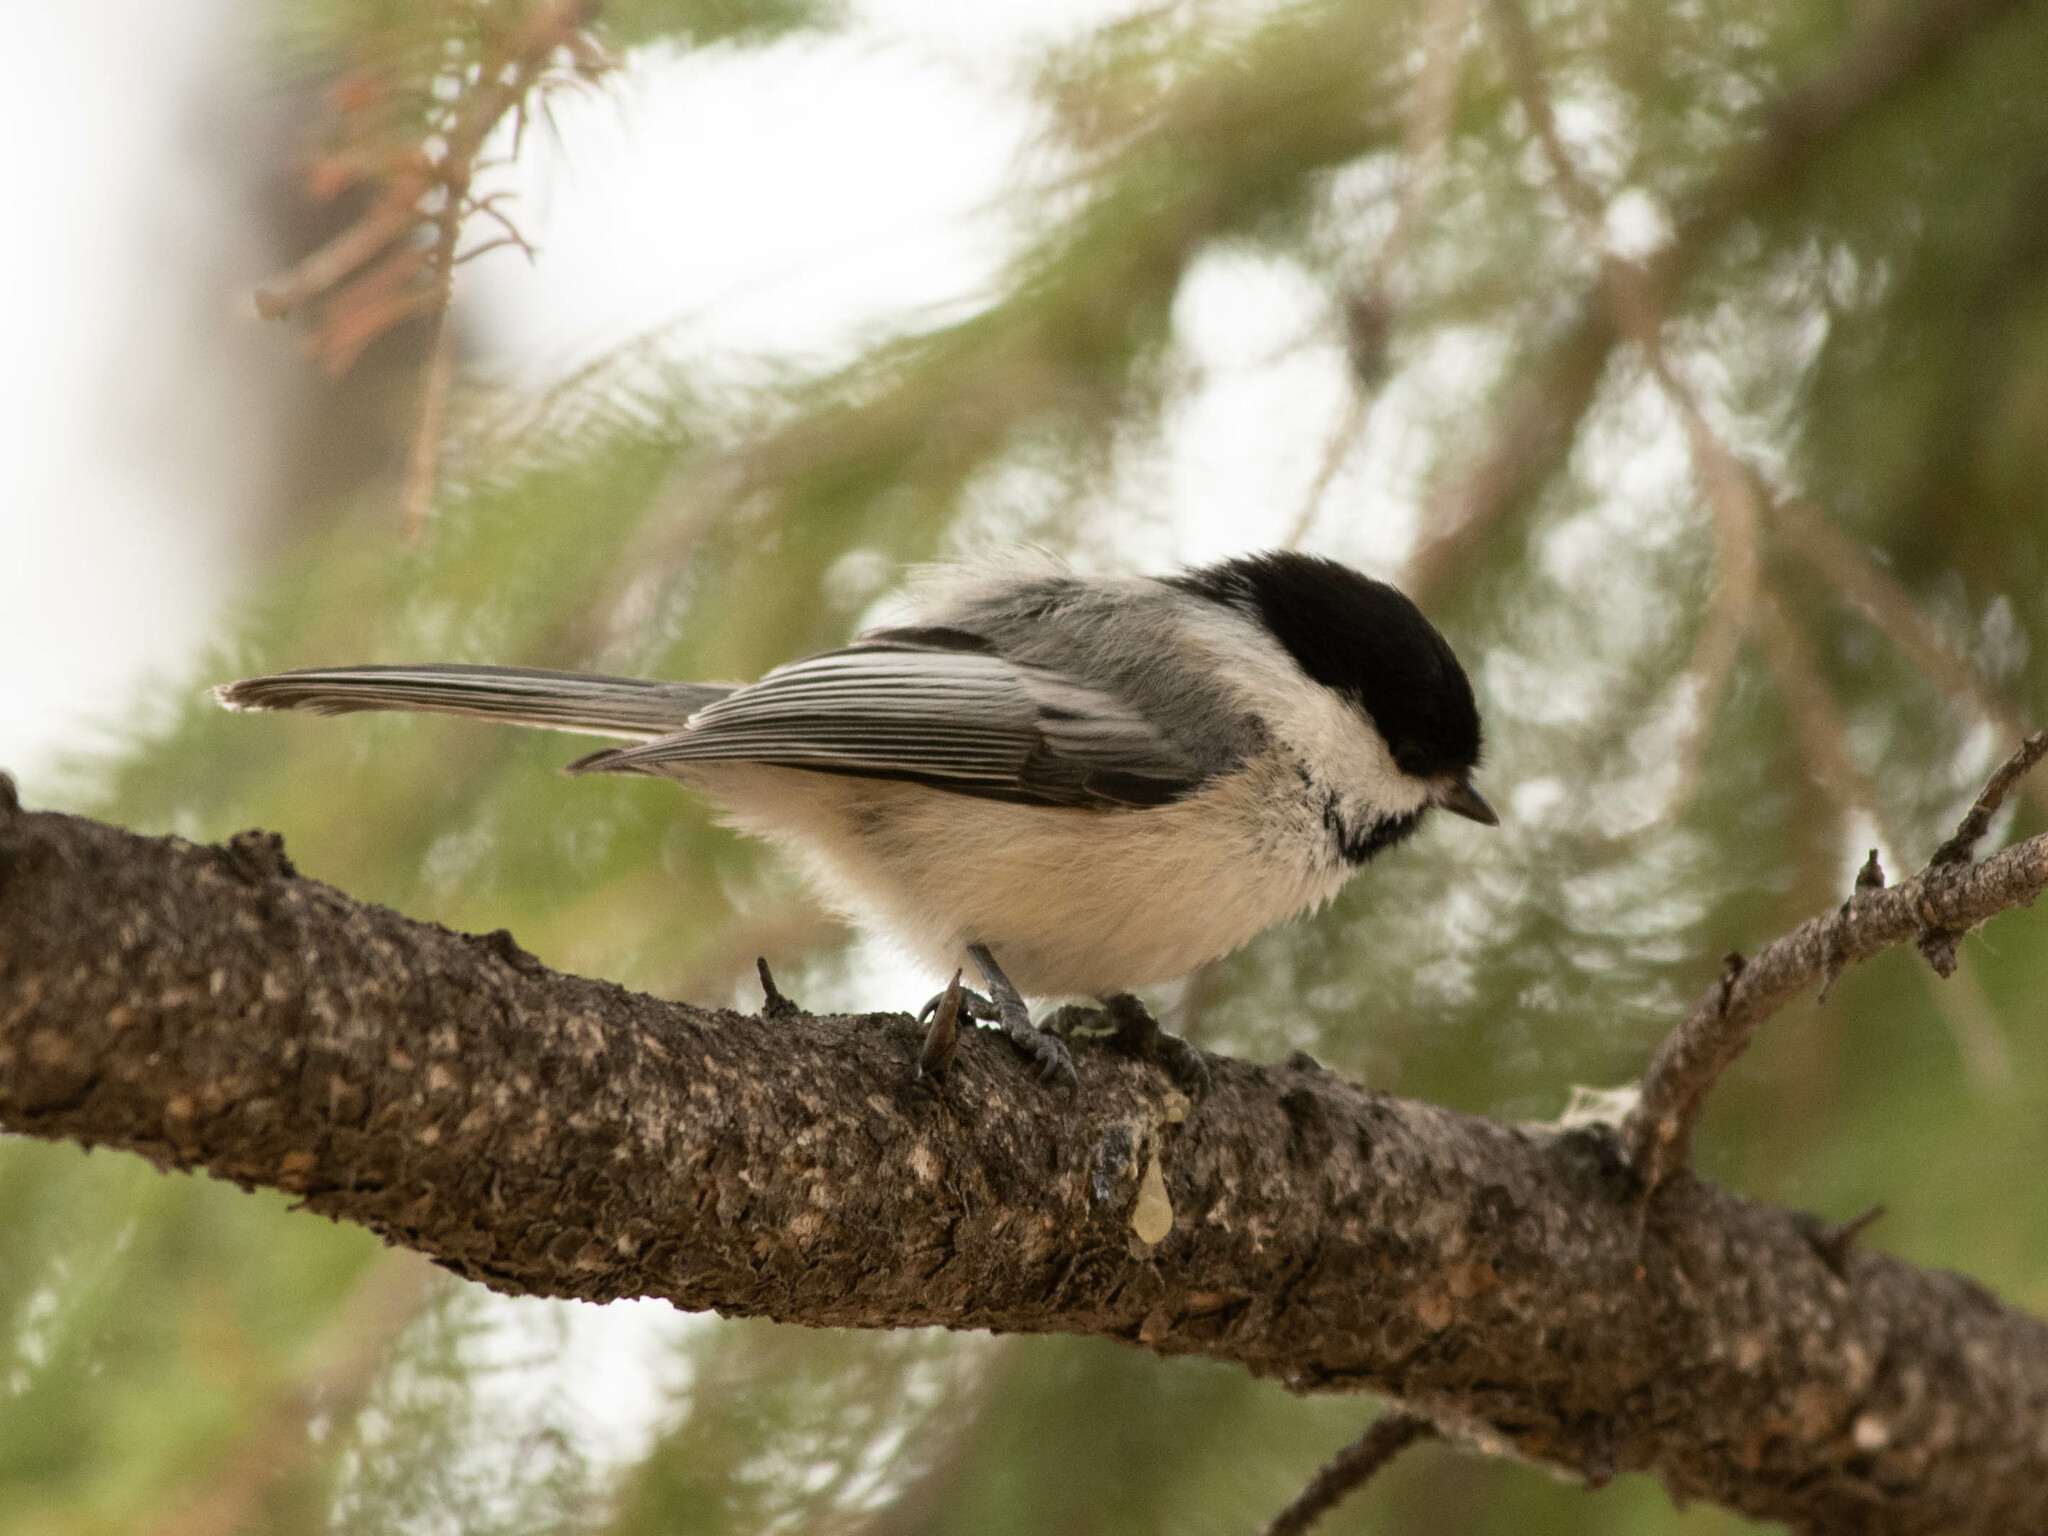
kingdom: Animalia
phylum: Chordata
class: Aves
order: Passeriformes
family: Paridae
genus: Poecile
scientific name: Poecile atricapillus
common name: Black-capped chickadee
